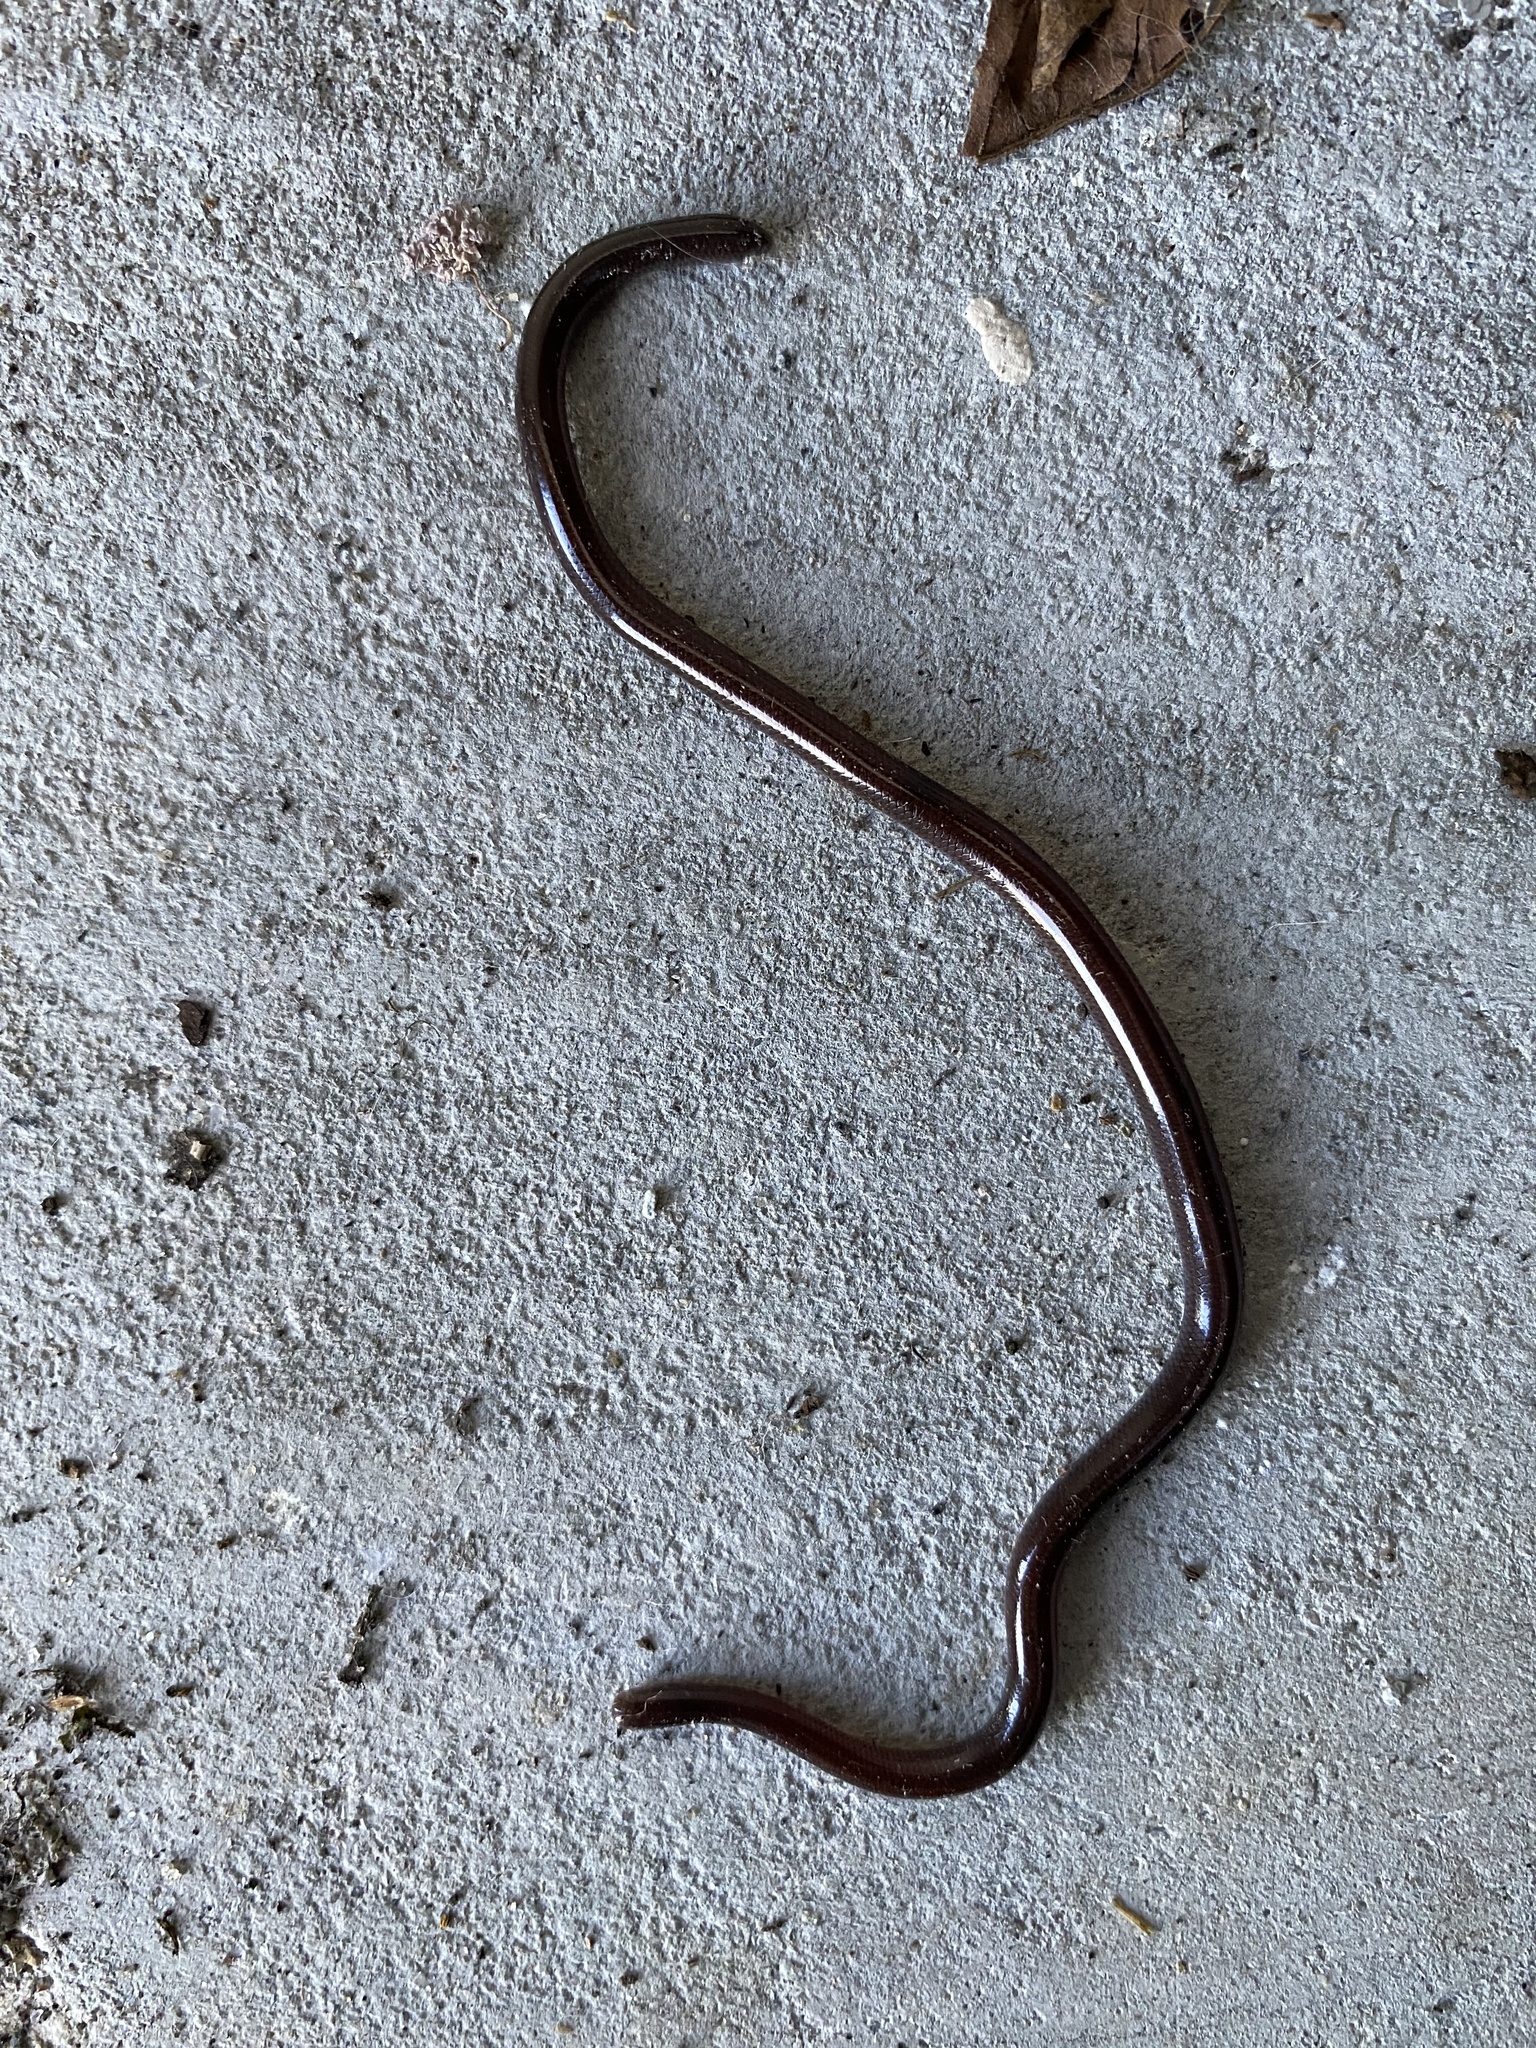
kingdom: Animalia
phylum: Chordata
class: Squamata
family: Typhlopidae
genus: Indotyphlops
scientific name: Indotyphlops braminus
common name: Brahminy blindsnake
